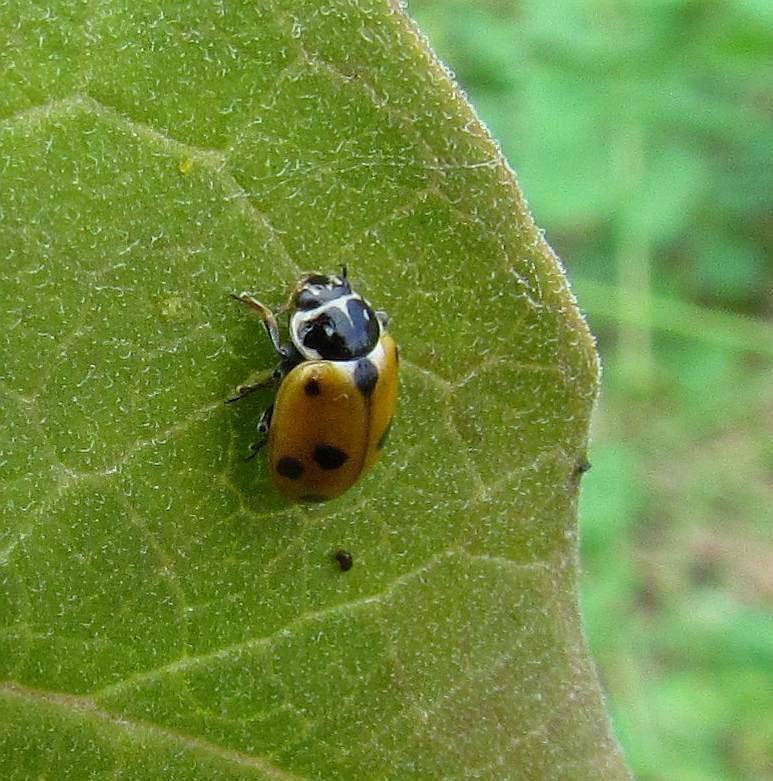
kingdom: Animalia
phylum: Arthropoda
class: Insecta
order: Coleoptera
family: Coccinellidae
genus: Hippodamia
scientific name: Hippodamia variegata
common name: Ladybird beetle
